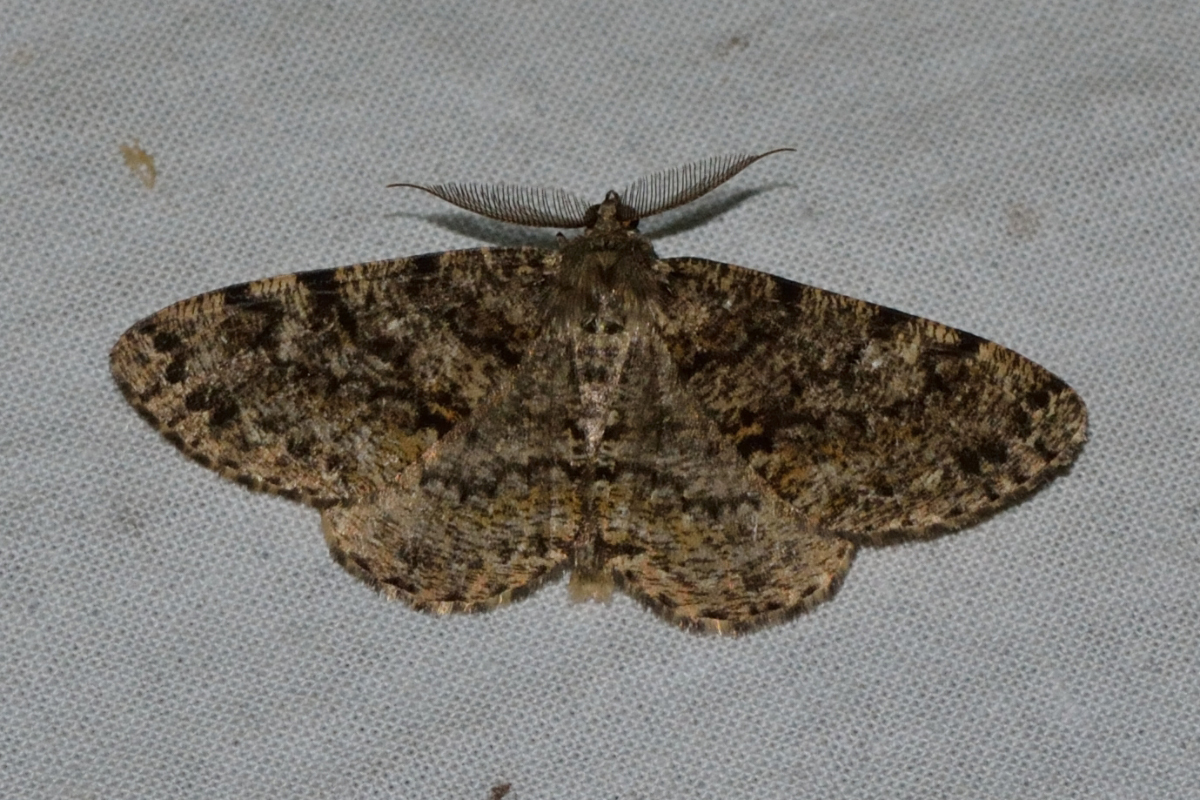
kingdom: Animalia
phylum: Arthropoda
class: Insecta
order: Lepidoptera
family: Geometridae
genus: Deileptenia
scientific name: Deileptenia ribeata
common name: Satin beauty
